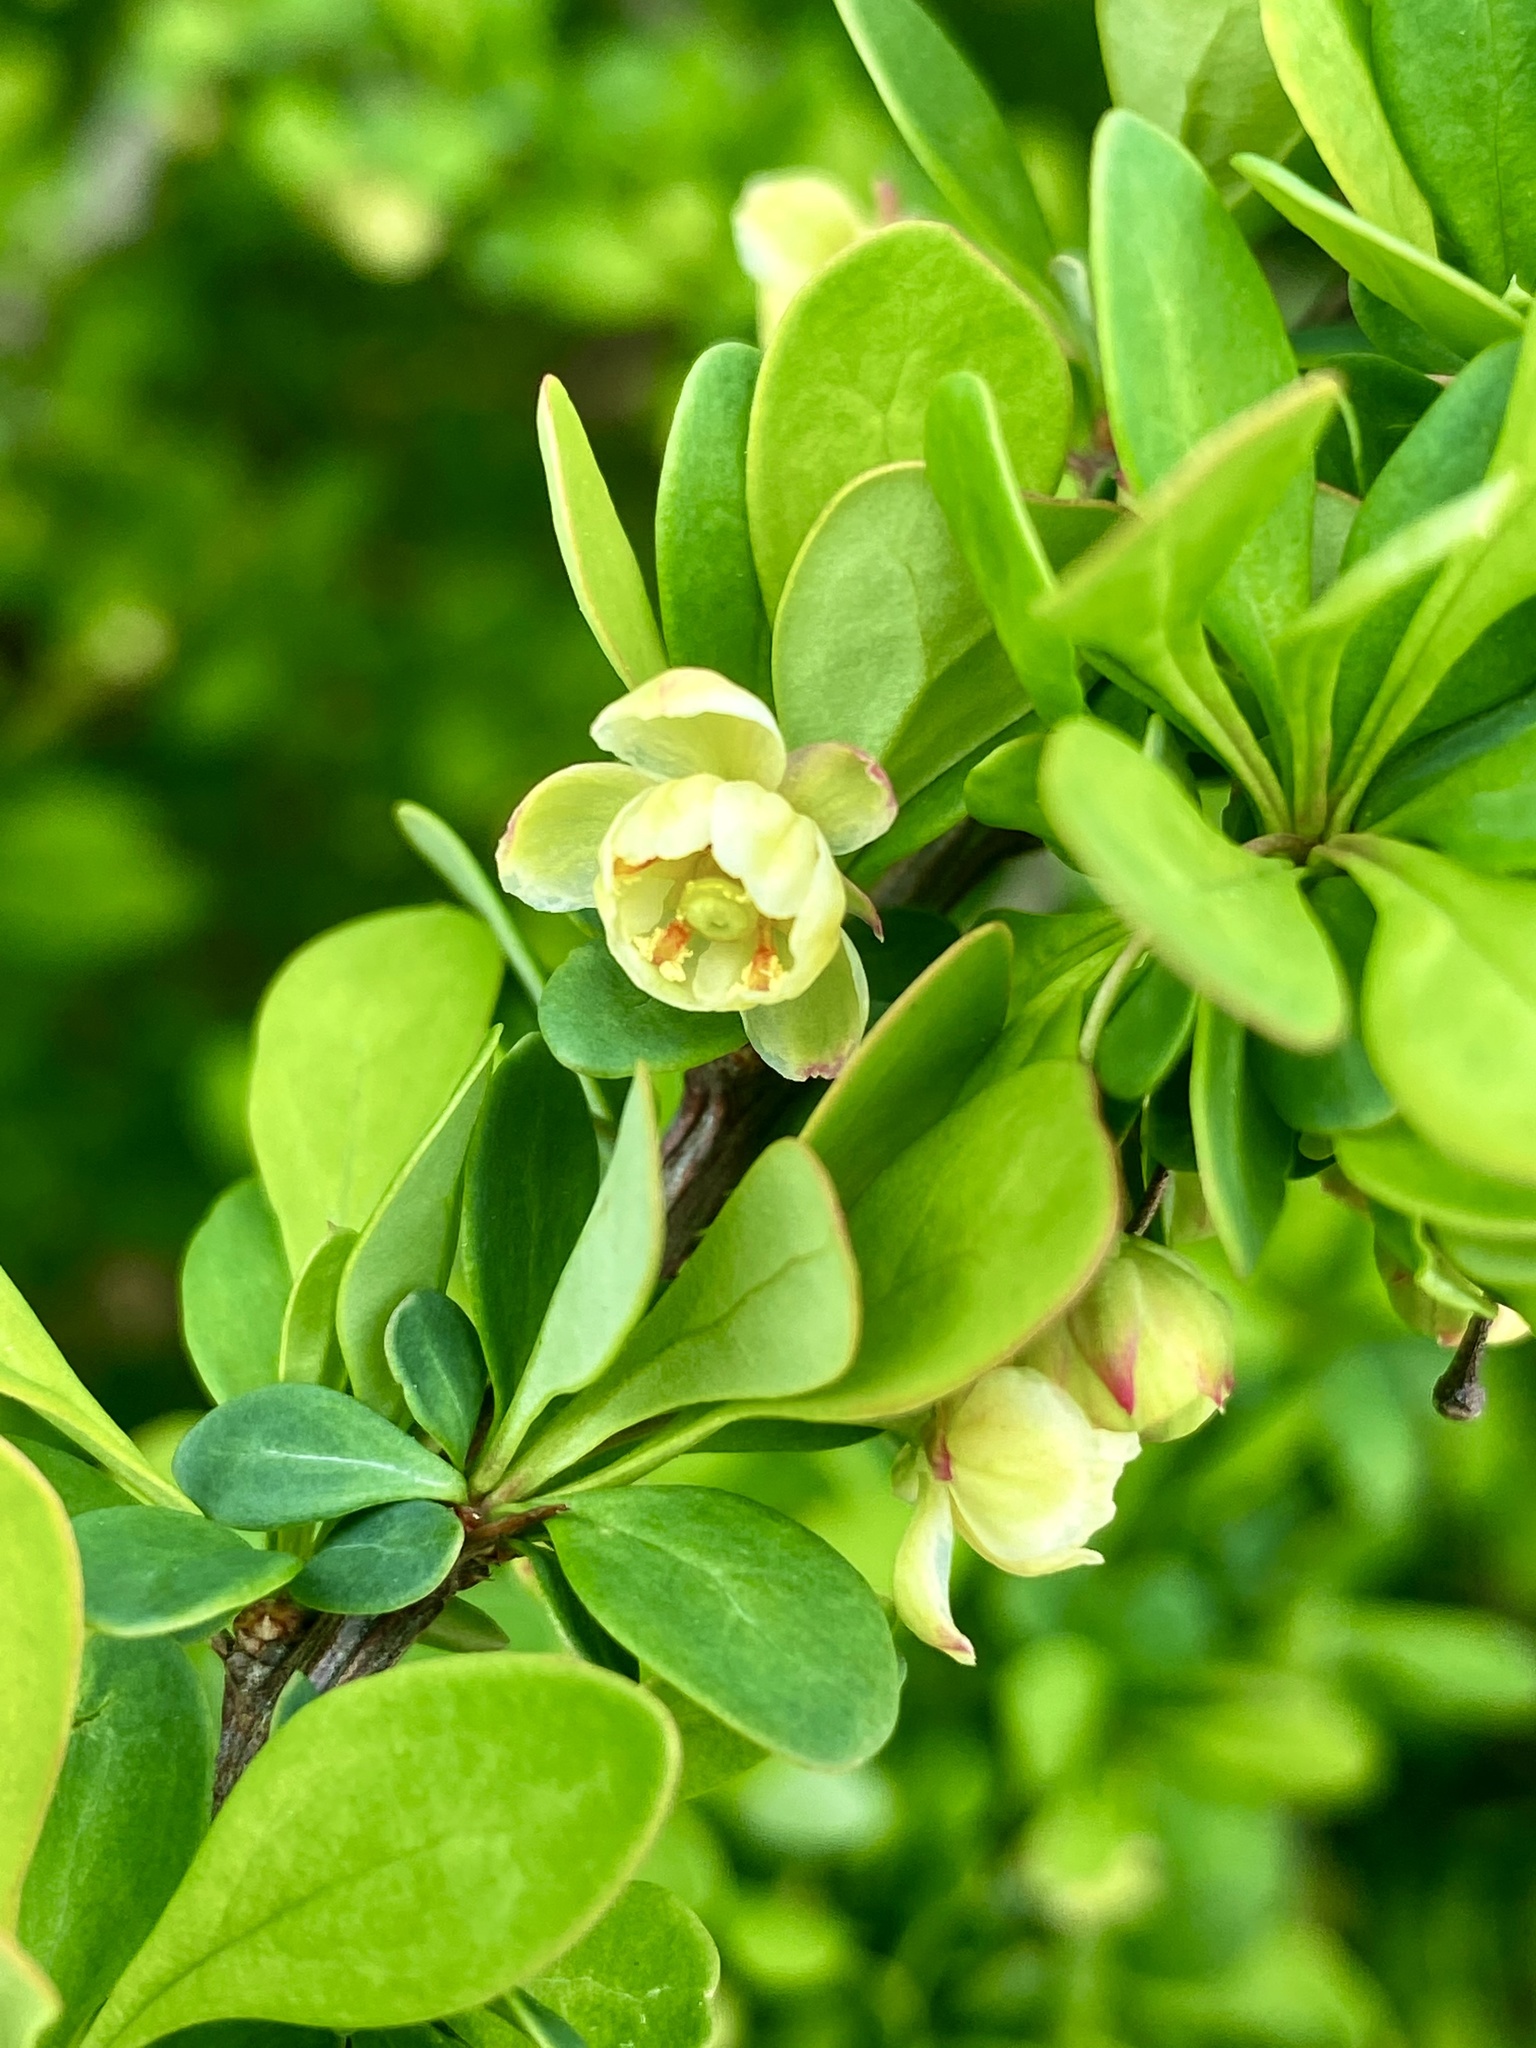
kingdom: Plantae
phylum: Tracheophyta
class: Magnoliopsida
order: Ranunculales
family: Berberidaceae
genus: Berberis
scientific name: Berberis thunbergii
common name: Japanese barberry
